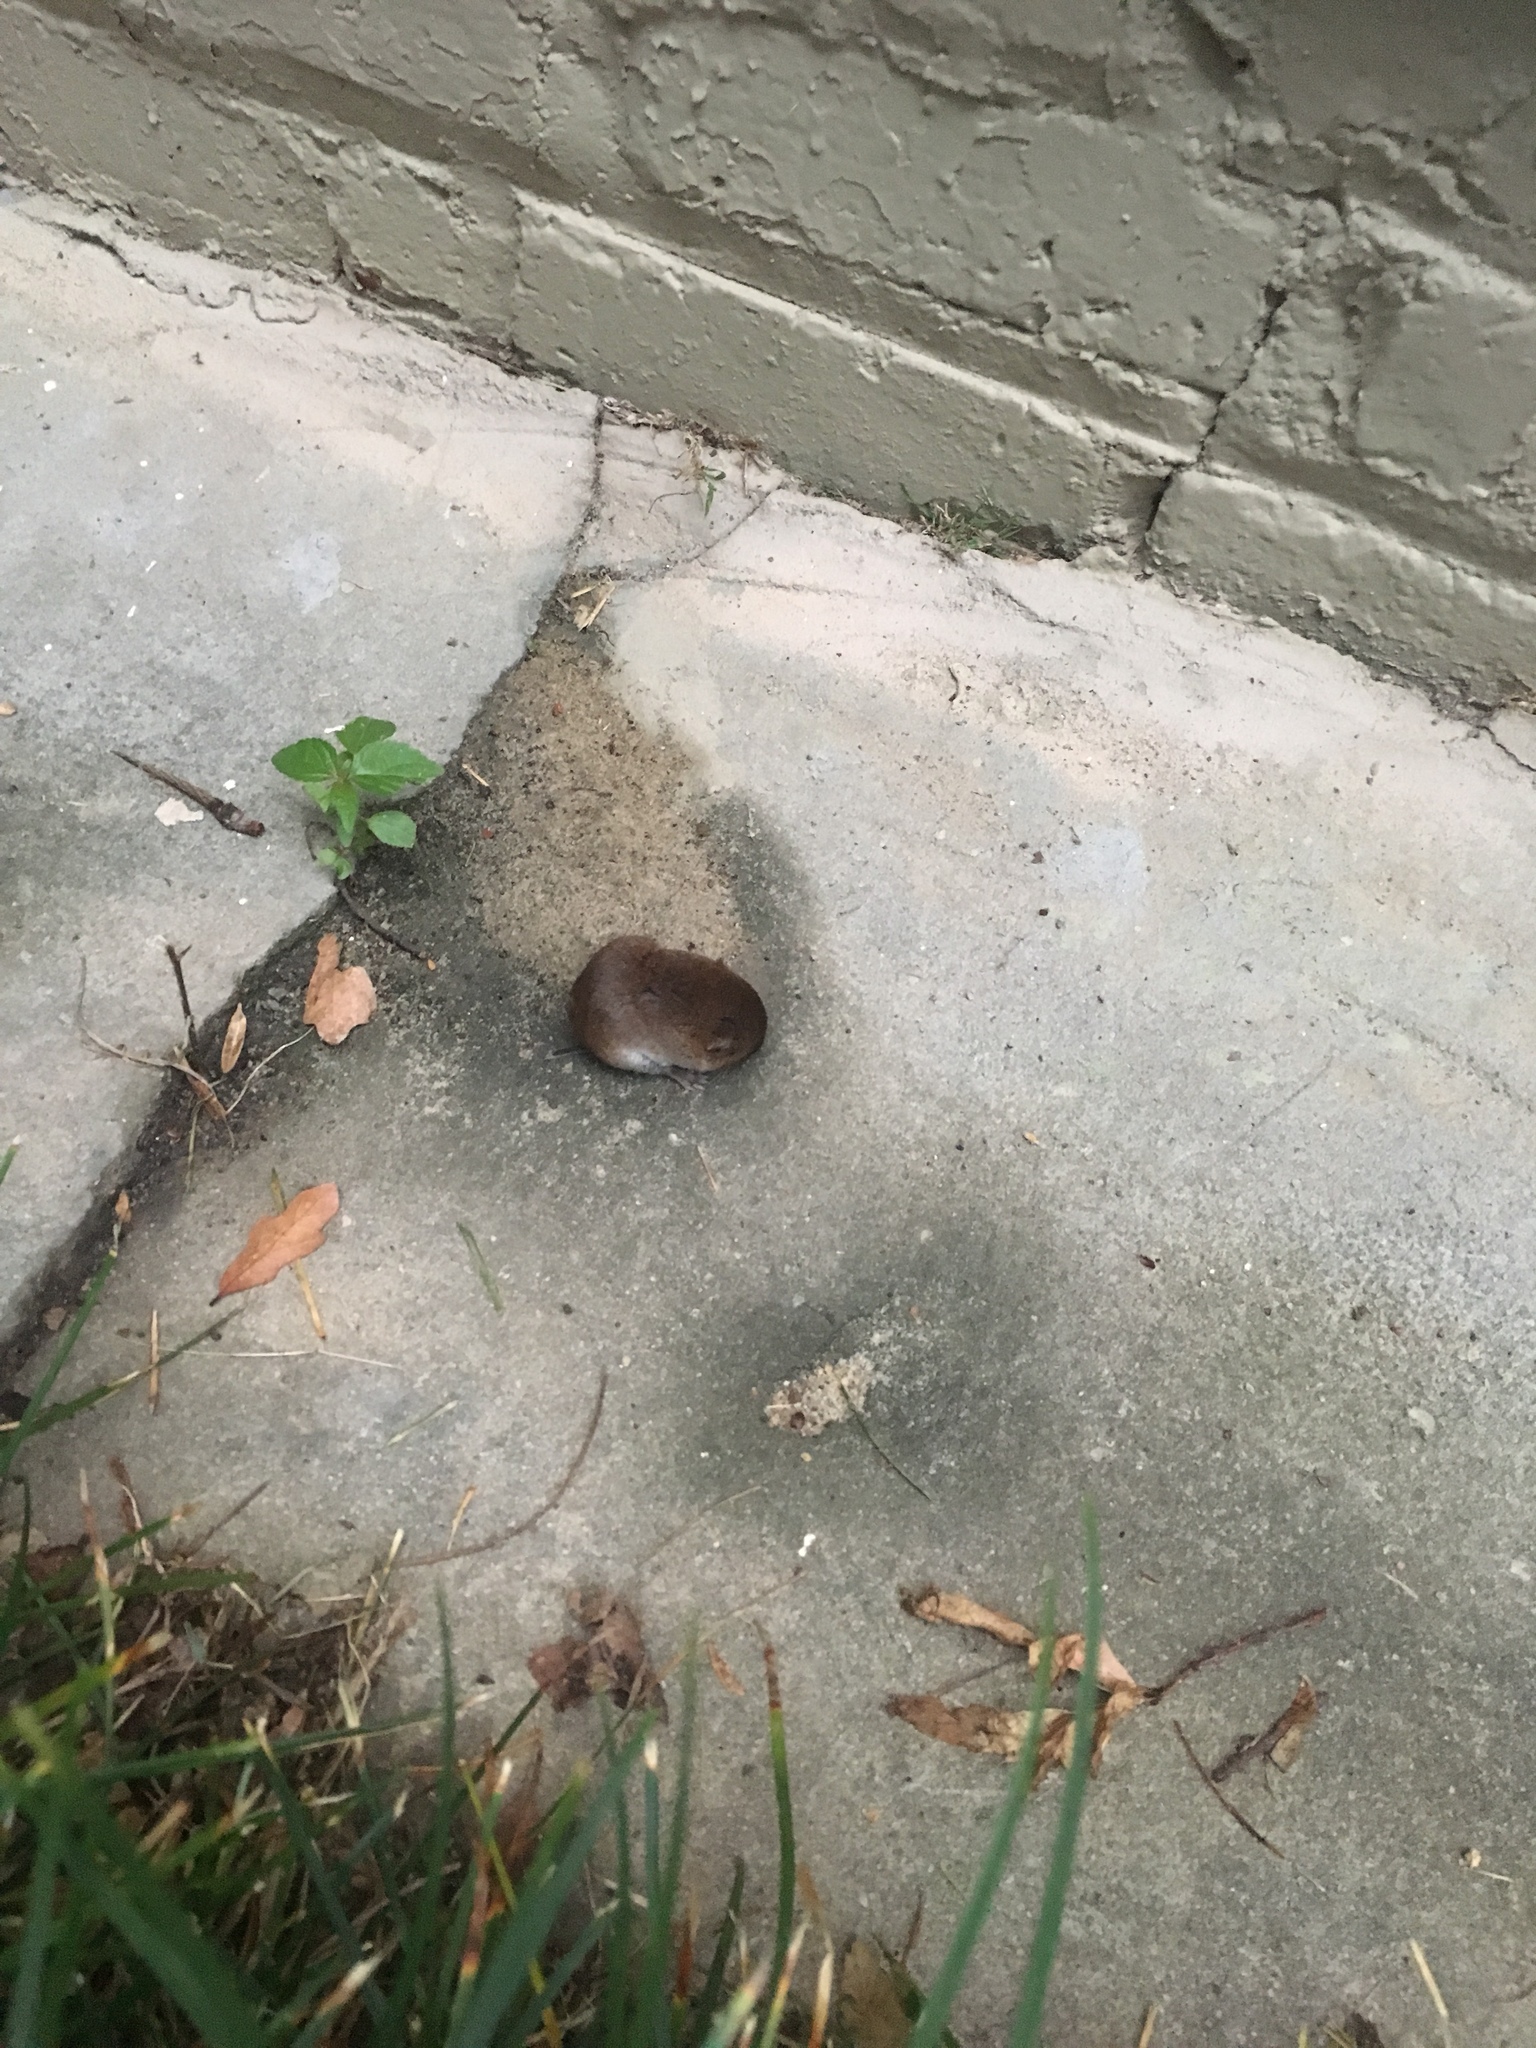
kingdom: Animalia
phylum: Chordata
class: Mammalia
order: Rodentia
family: Cricetidae
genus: Microtus
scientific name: Microtus pinetorum
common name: Woodland vole
